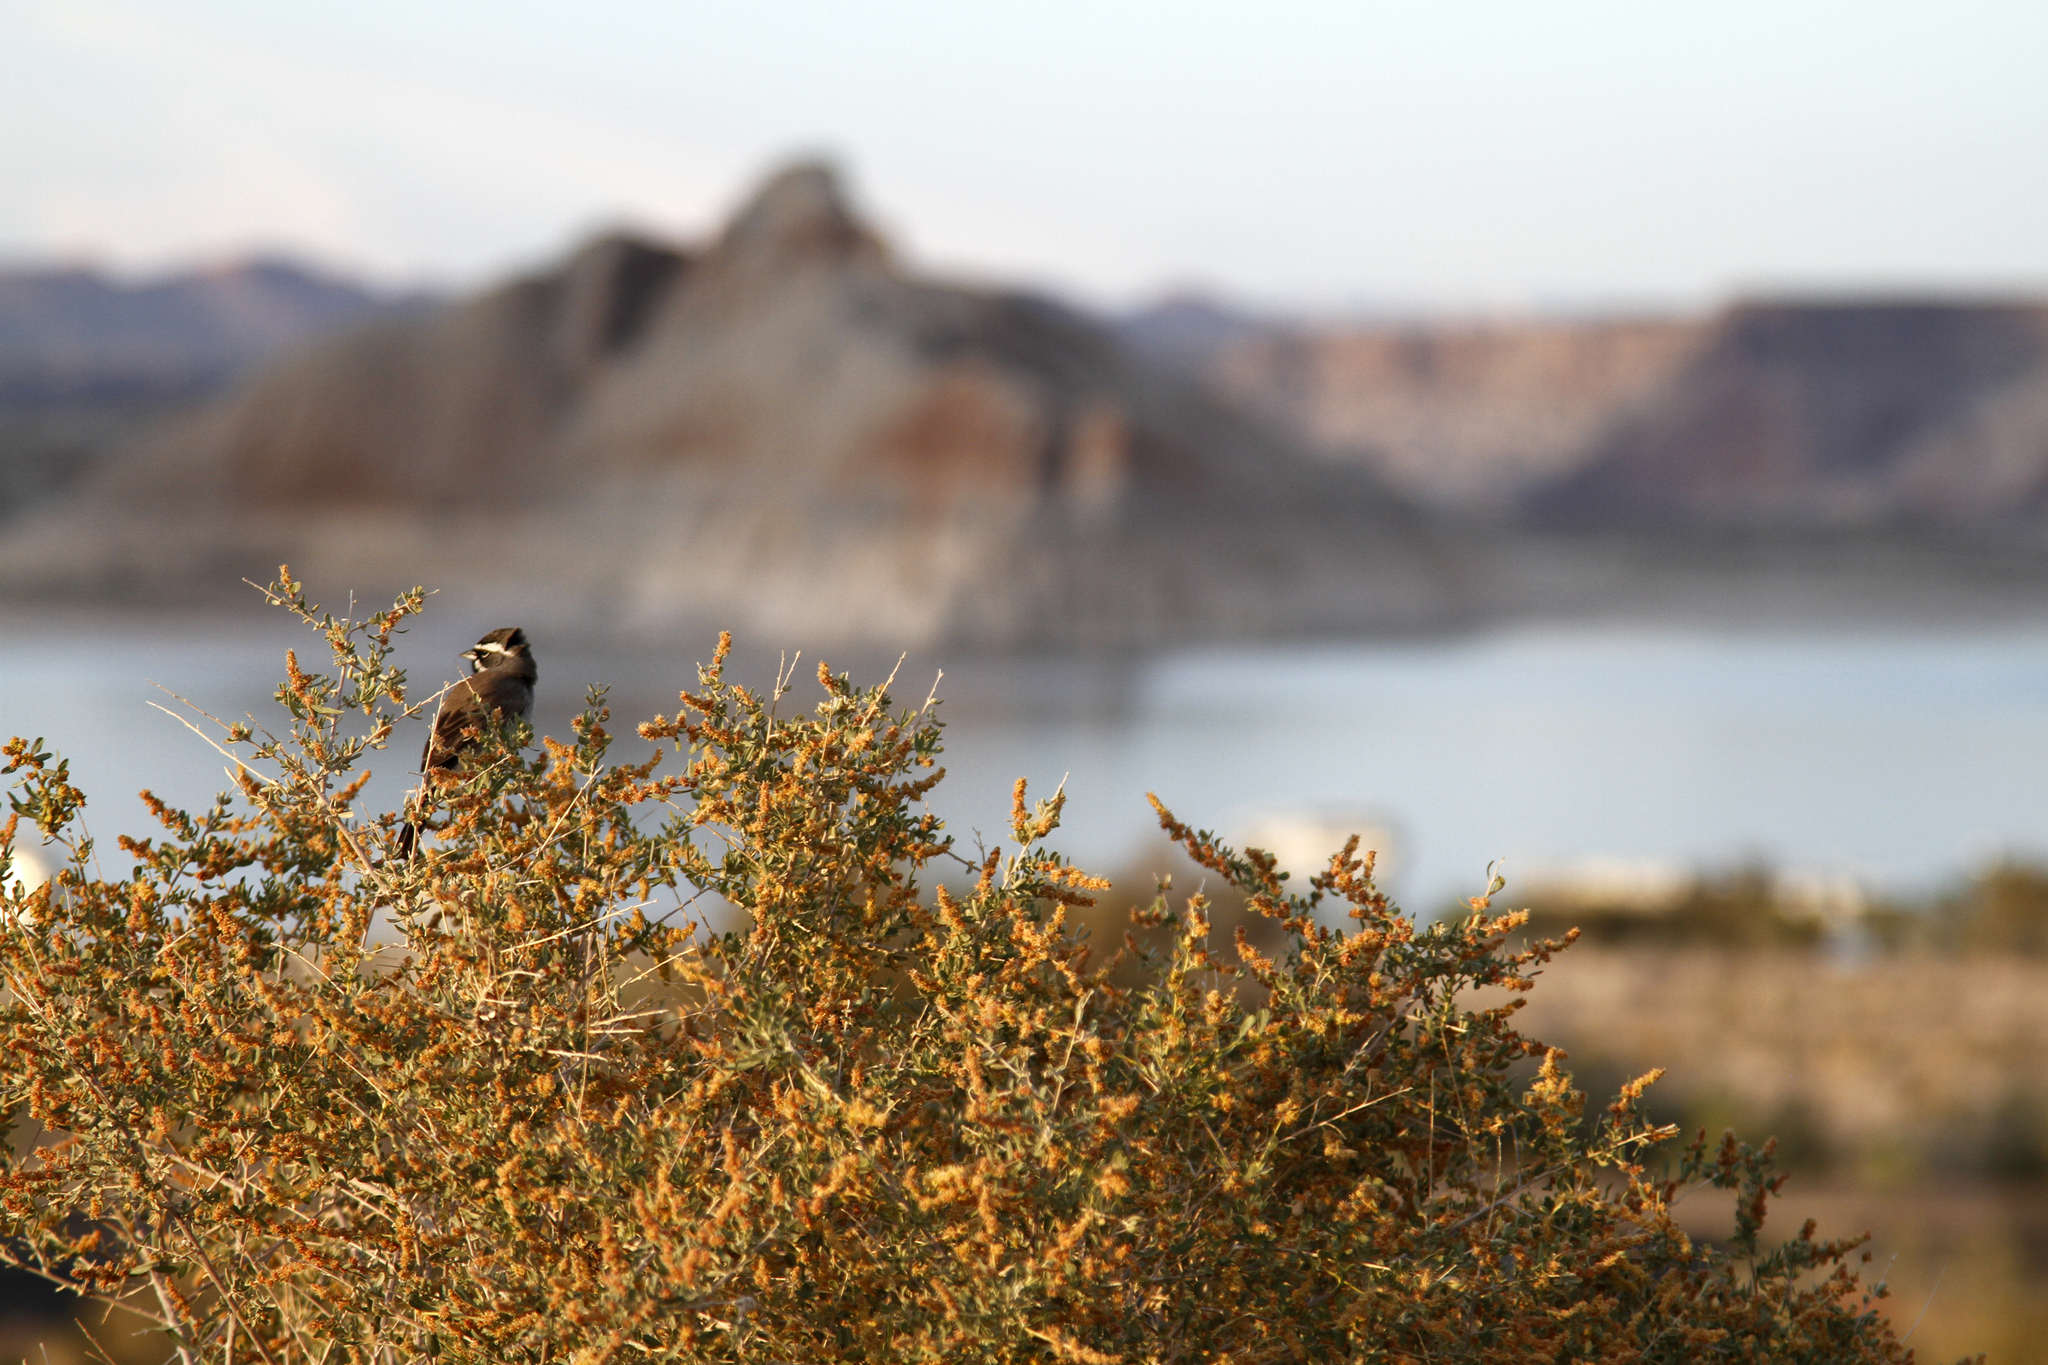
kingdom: Animalia
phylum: Chordata
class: Aves
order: Passeriformes
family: Passerellidae
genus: Amphispiza
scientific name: Amphispiza bilineata
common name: Black-throated sparrow
